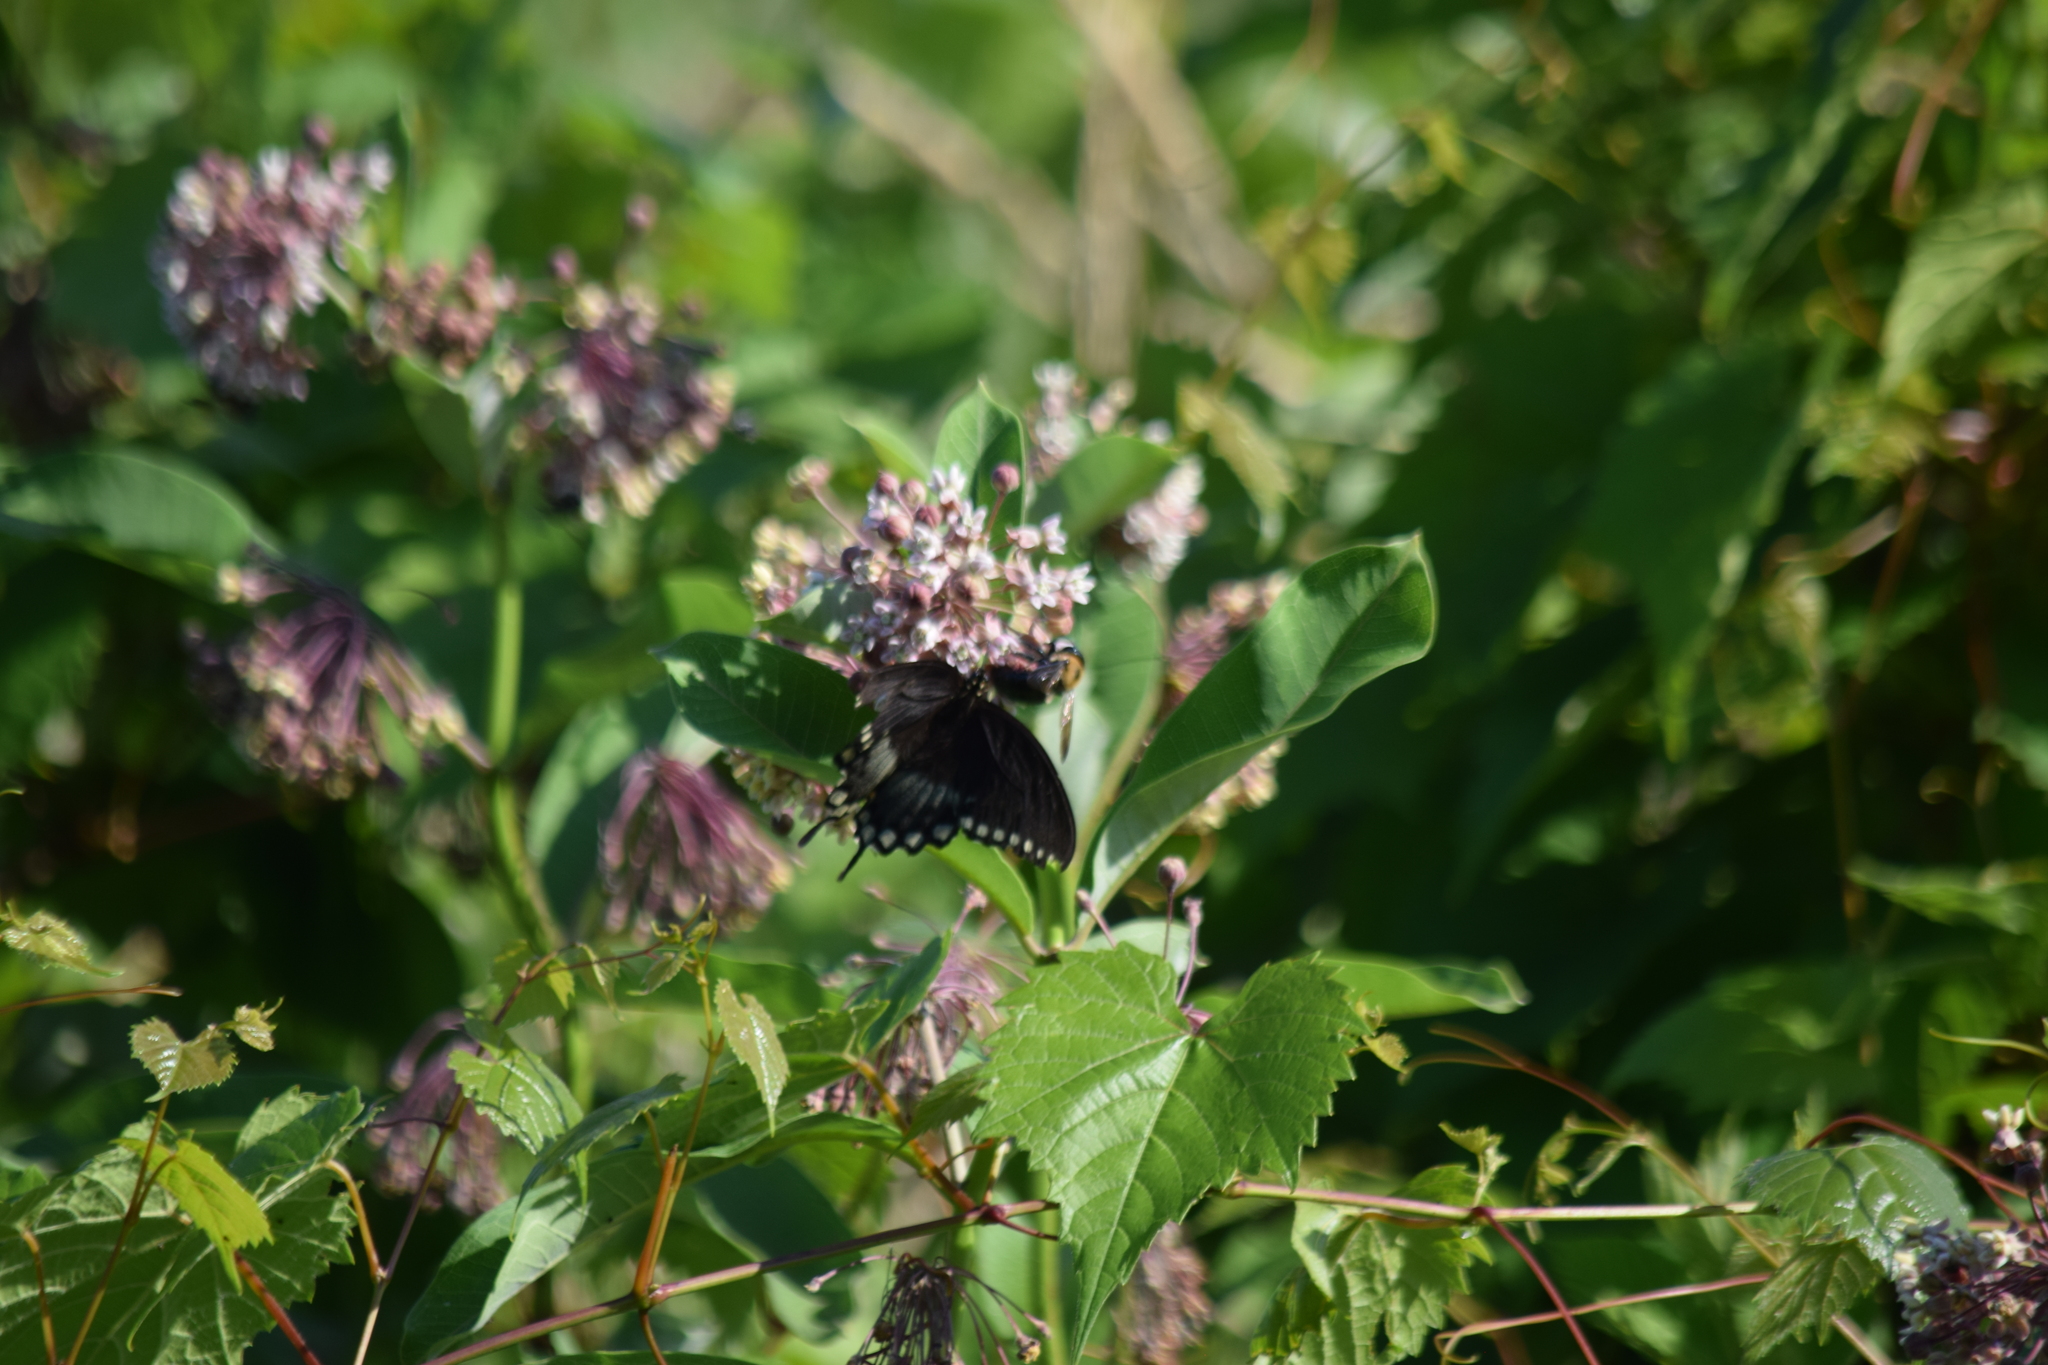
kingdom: Animalia
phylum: Arthropoda
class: Insecta
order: Lepidoptera
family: Papilionidae
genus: Papilio
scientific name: Papilio troilus
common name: Spicebush swallowtail
